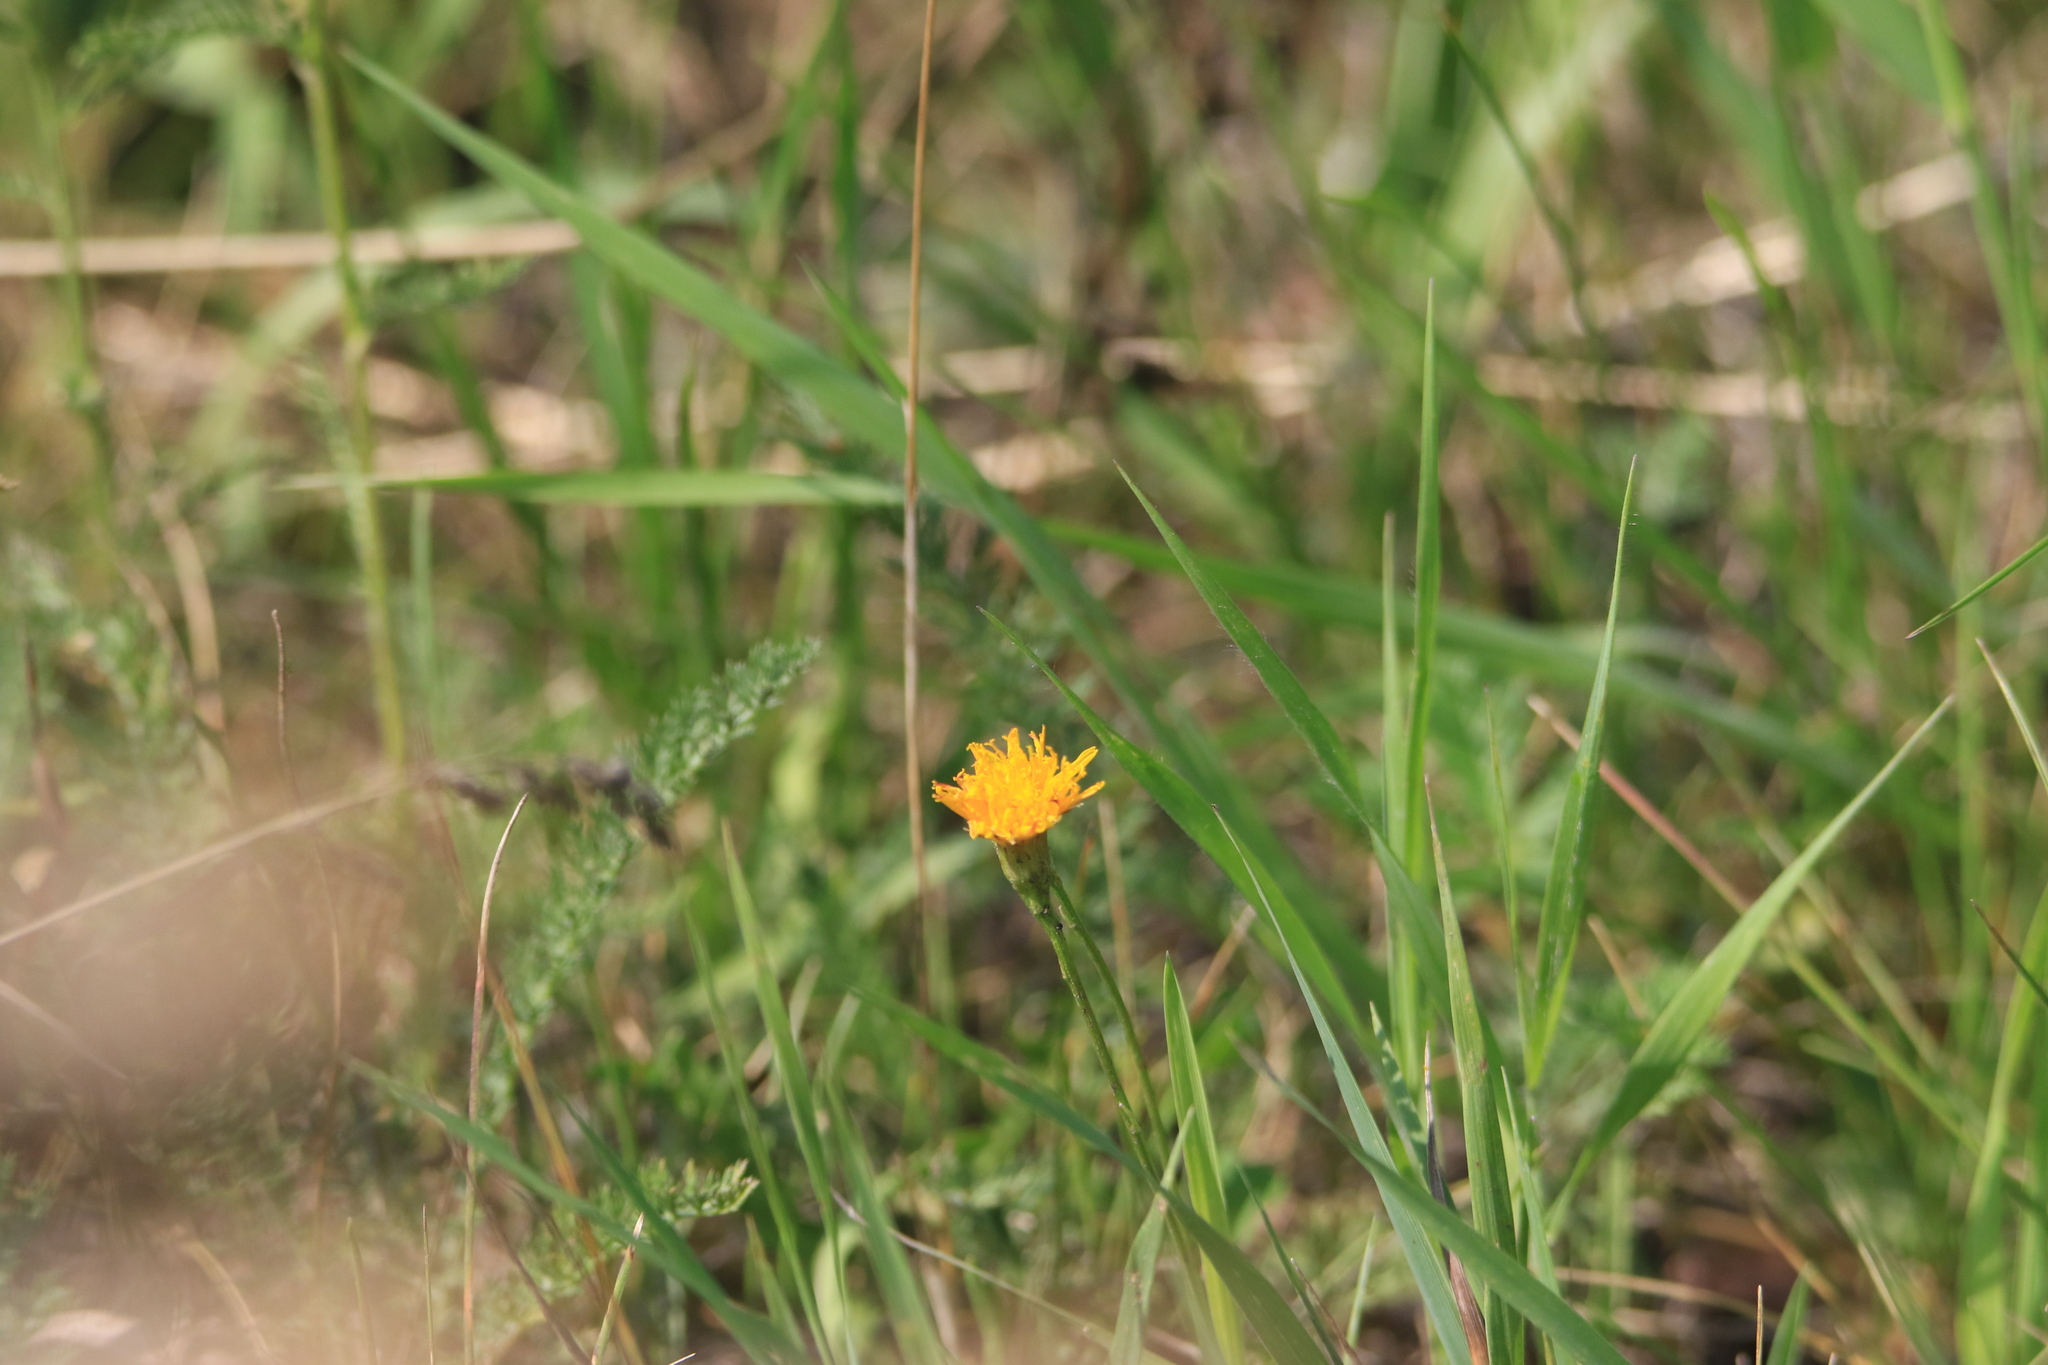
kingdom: Plantae
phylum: Tracheophyta
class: Magnoliopsida
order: Asterales
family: Asteraceae
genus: Scorzoneroides
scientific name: Scorzoneroides autumnalis
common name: Autumn hawkbit
